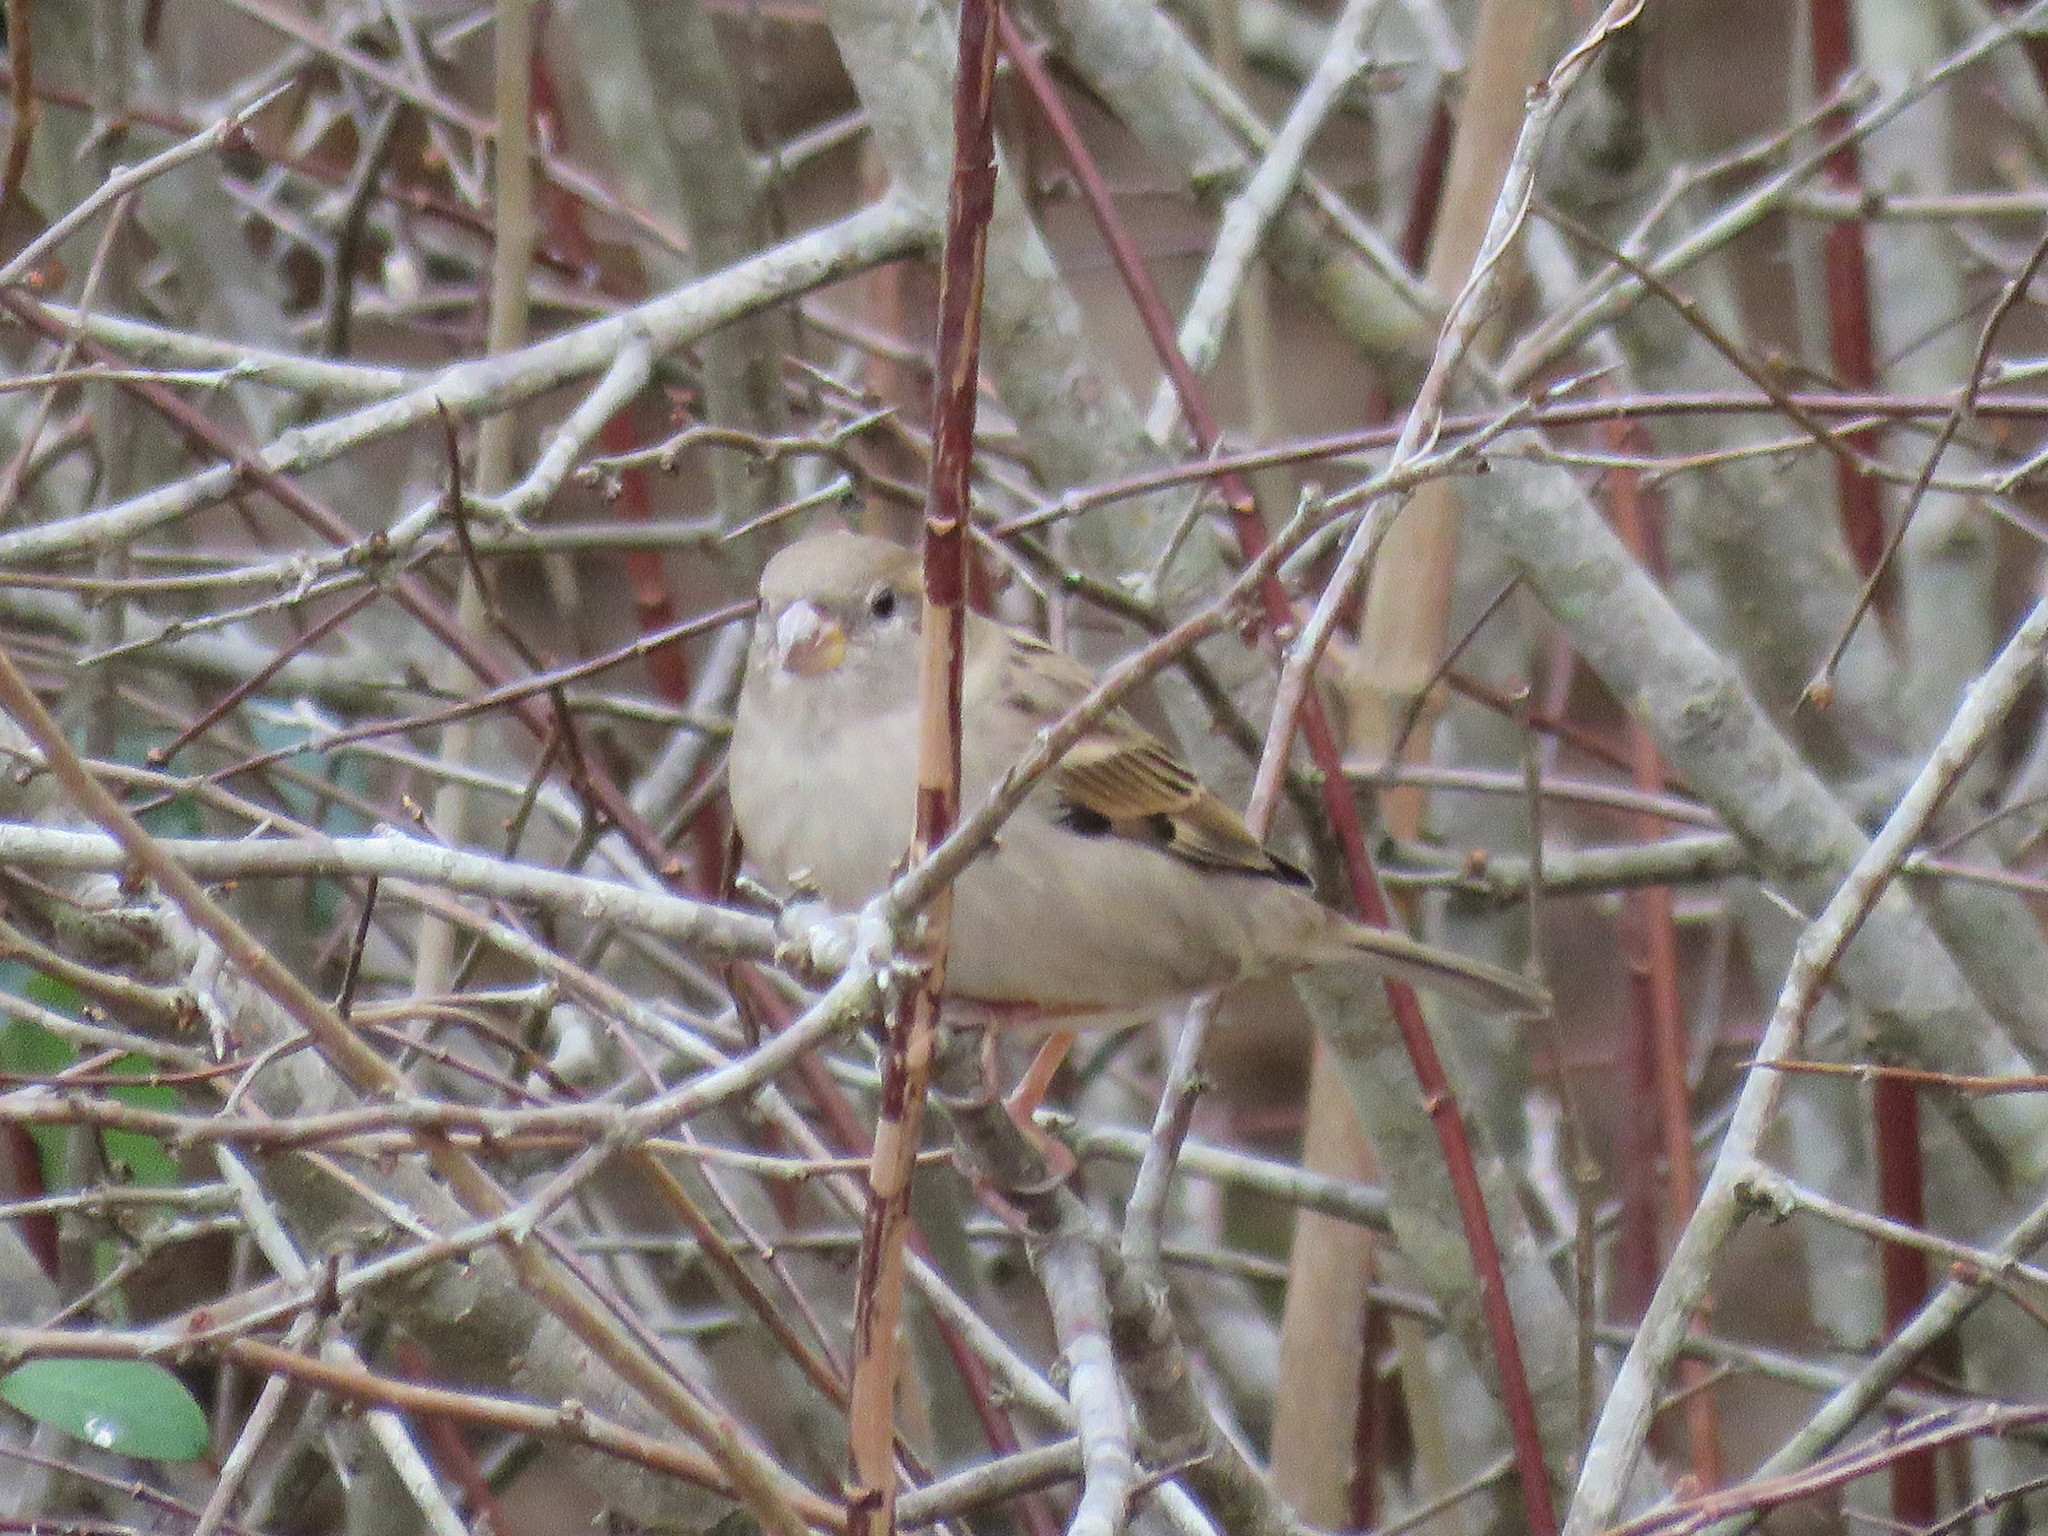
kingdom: Animalia
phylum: Chordata
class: Aves
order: Passeriformes
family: Passeridae
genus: Passer
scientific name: Passer domesticus
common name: House sparrow
